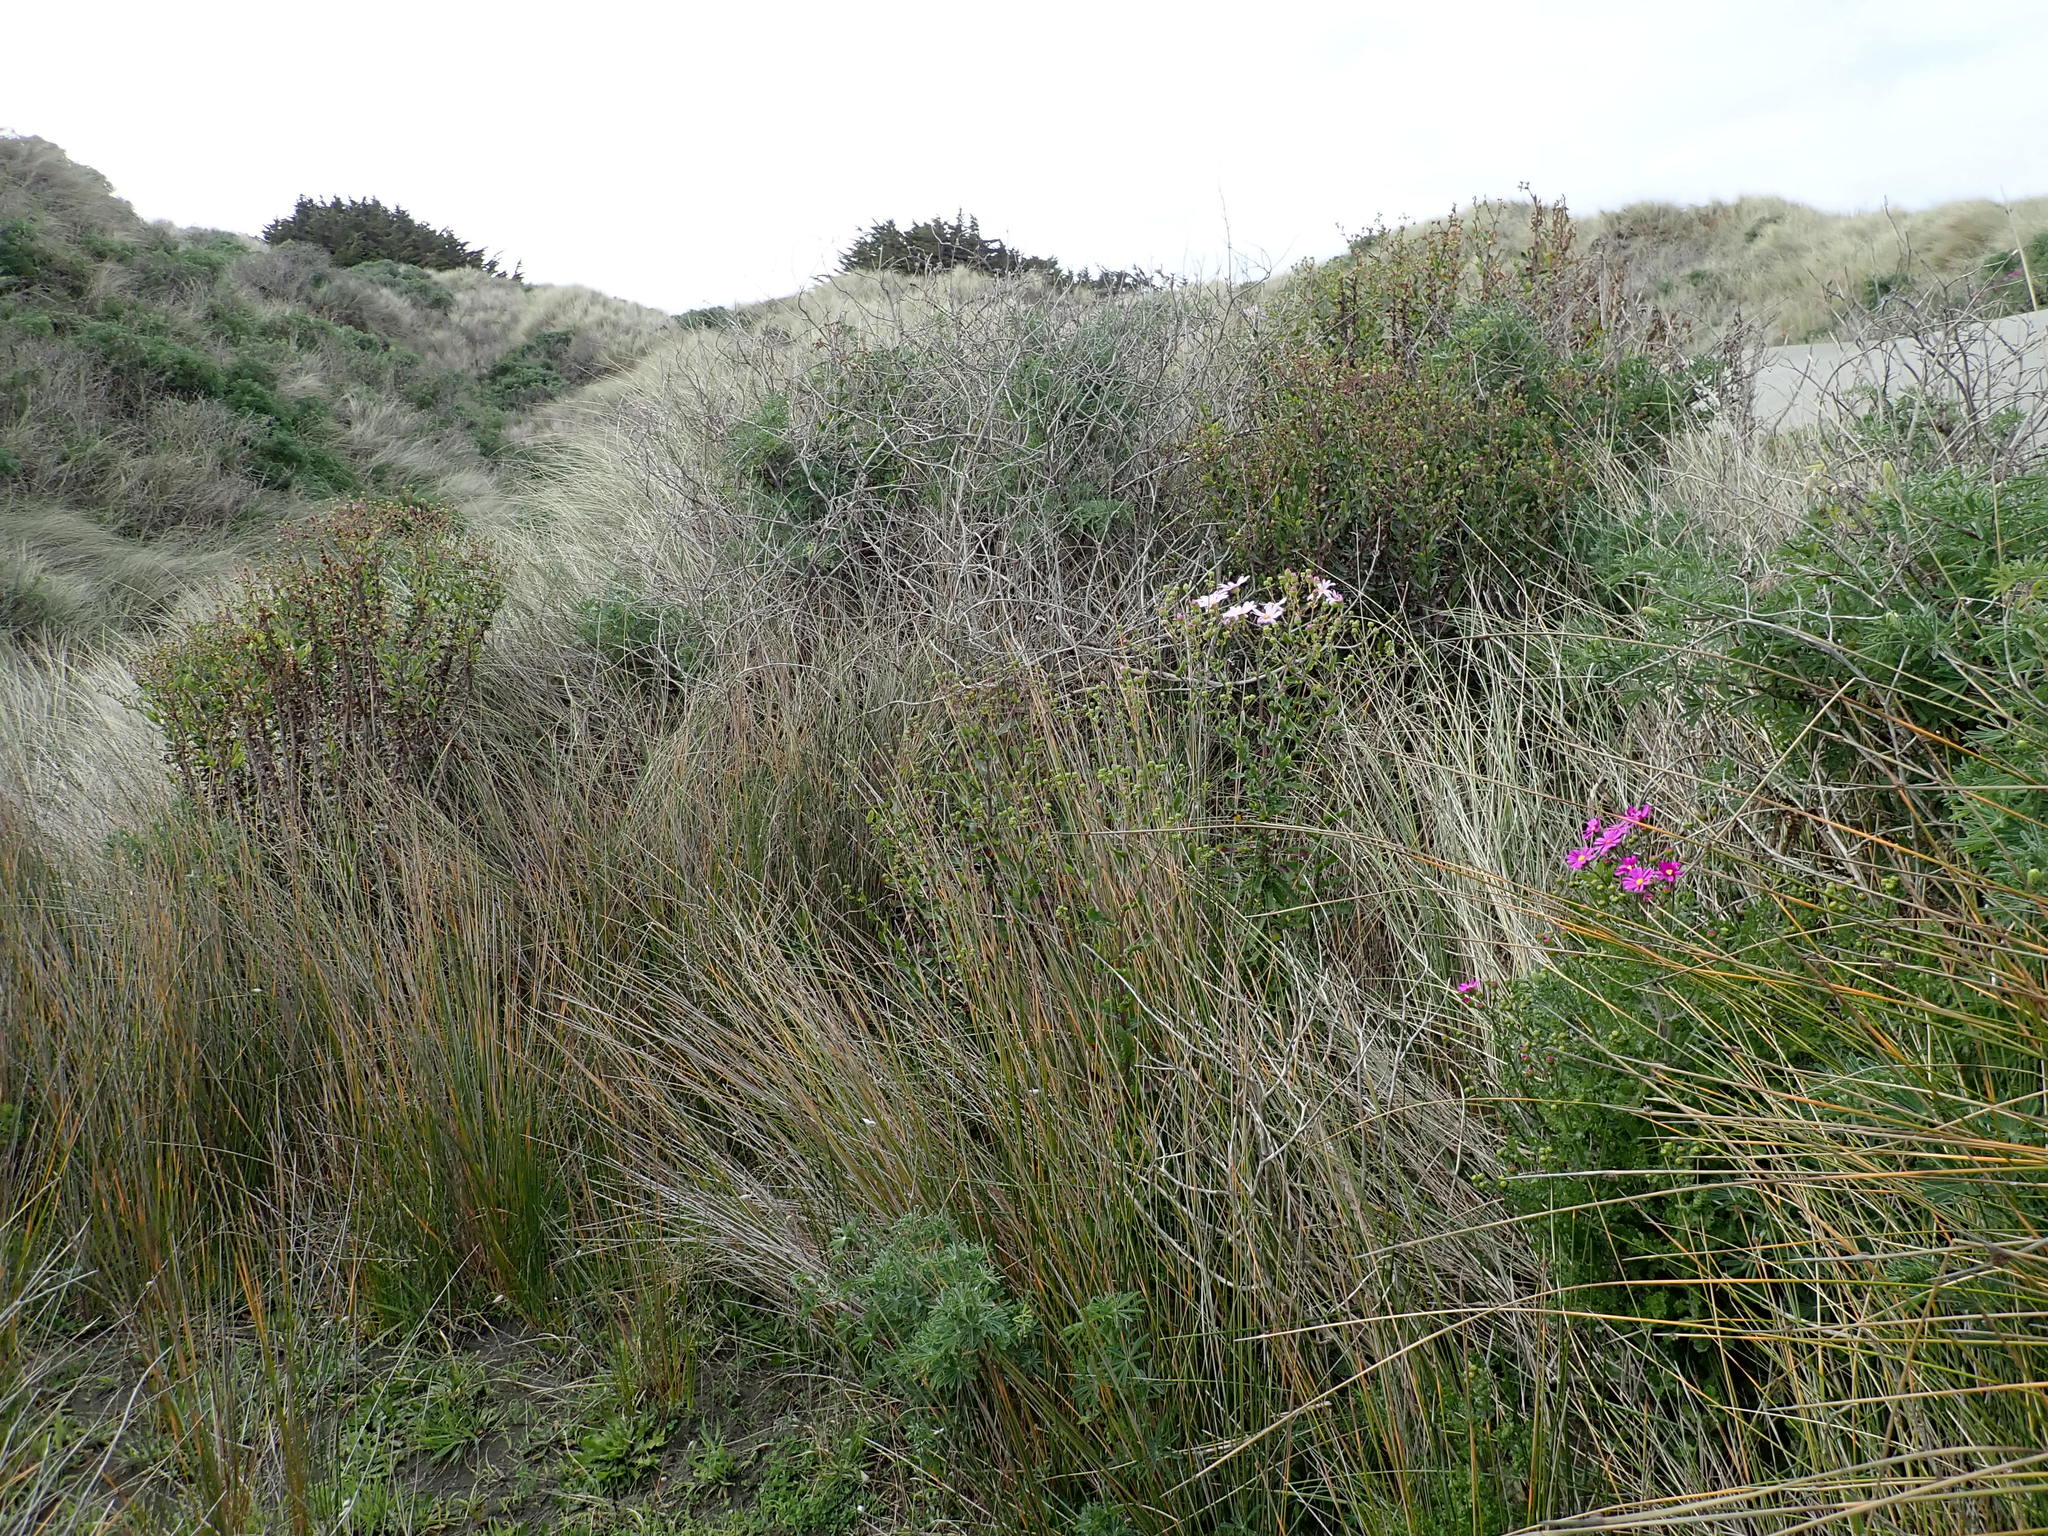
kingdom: Plantae
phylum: Tracheophyta
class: Magnoliopsida
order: Asterales
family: Asteraceae
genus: Senecio
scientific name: Senecio glastifolius
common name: Woad-leaved ragwort
